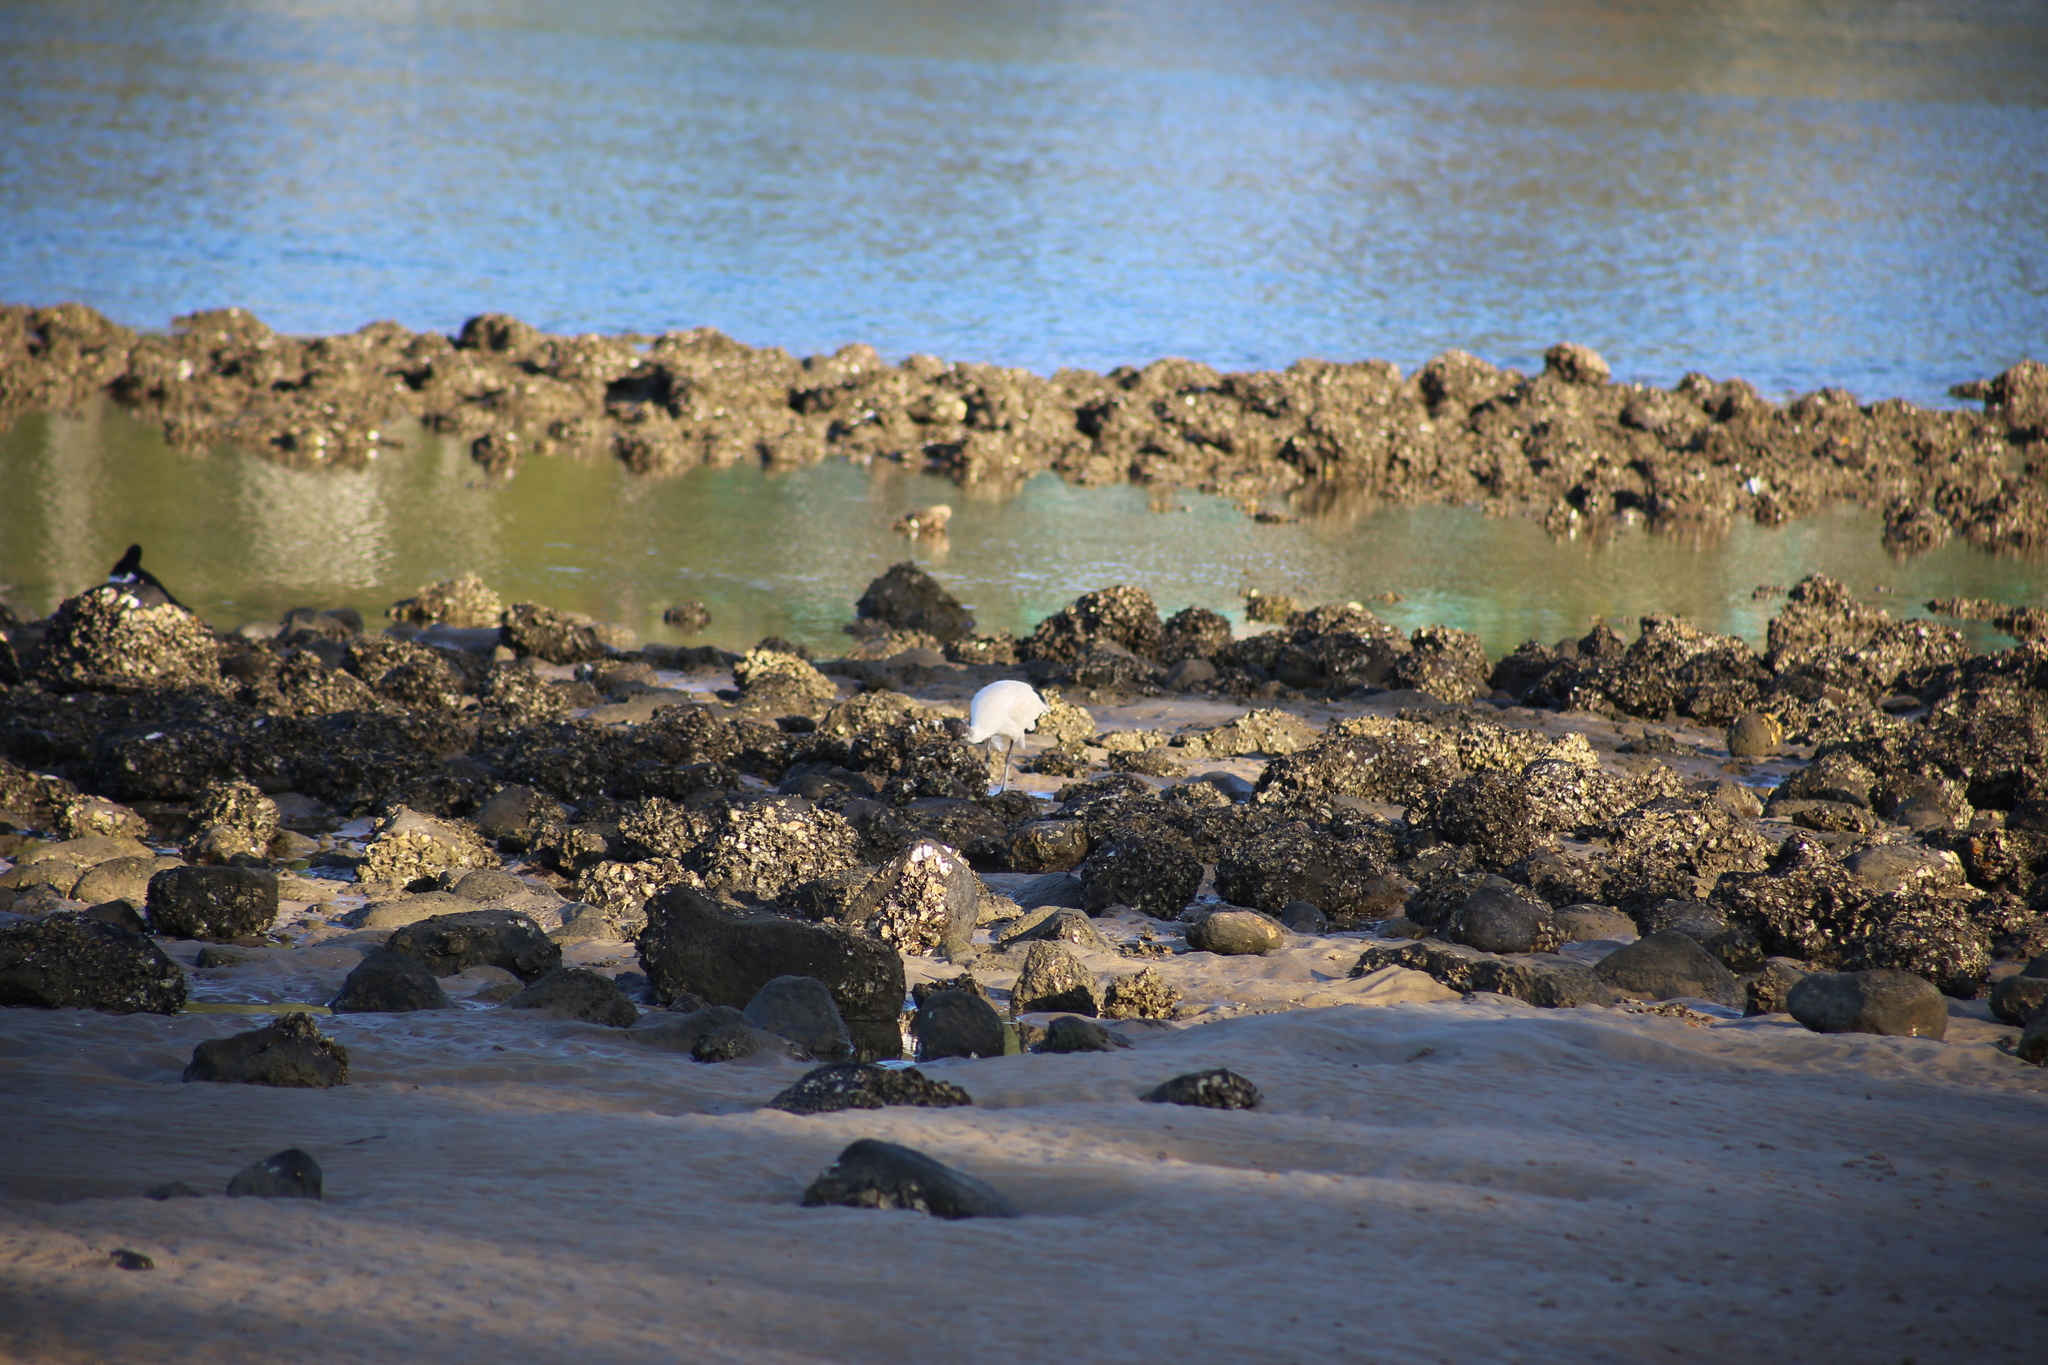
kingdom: Animalia
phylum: Chordata
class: Aves
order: Pelecaniformes
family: Threskiornithidae
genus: Threskiornis
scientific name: Threskiornis molucca
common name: Australian white ibis
